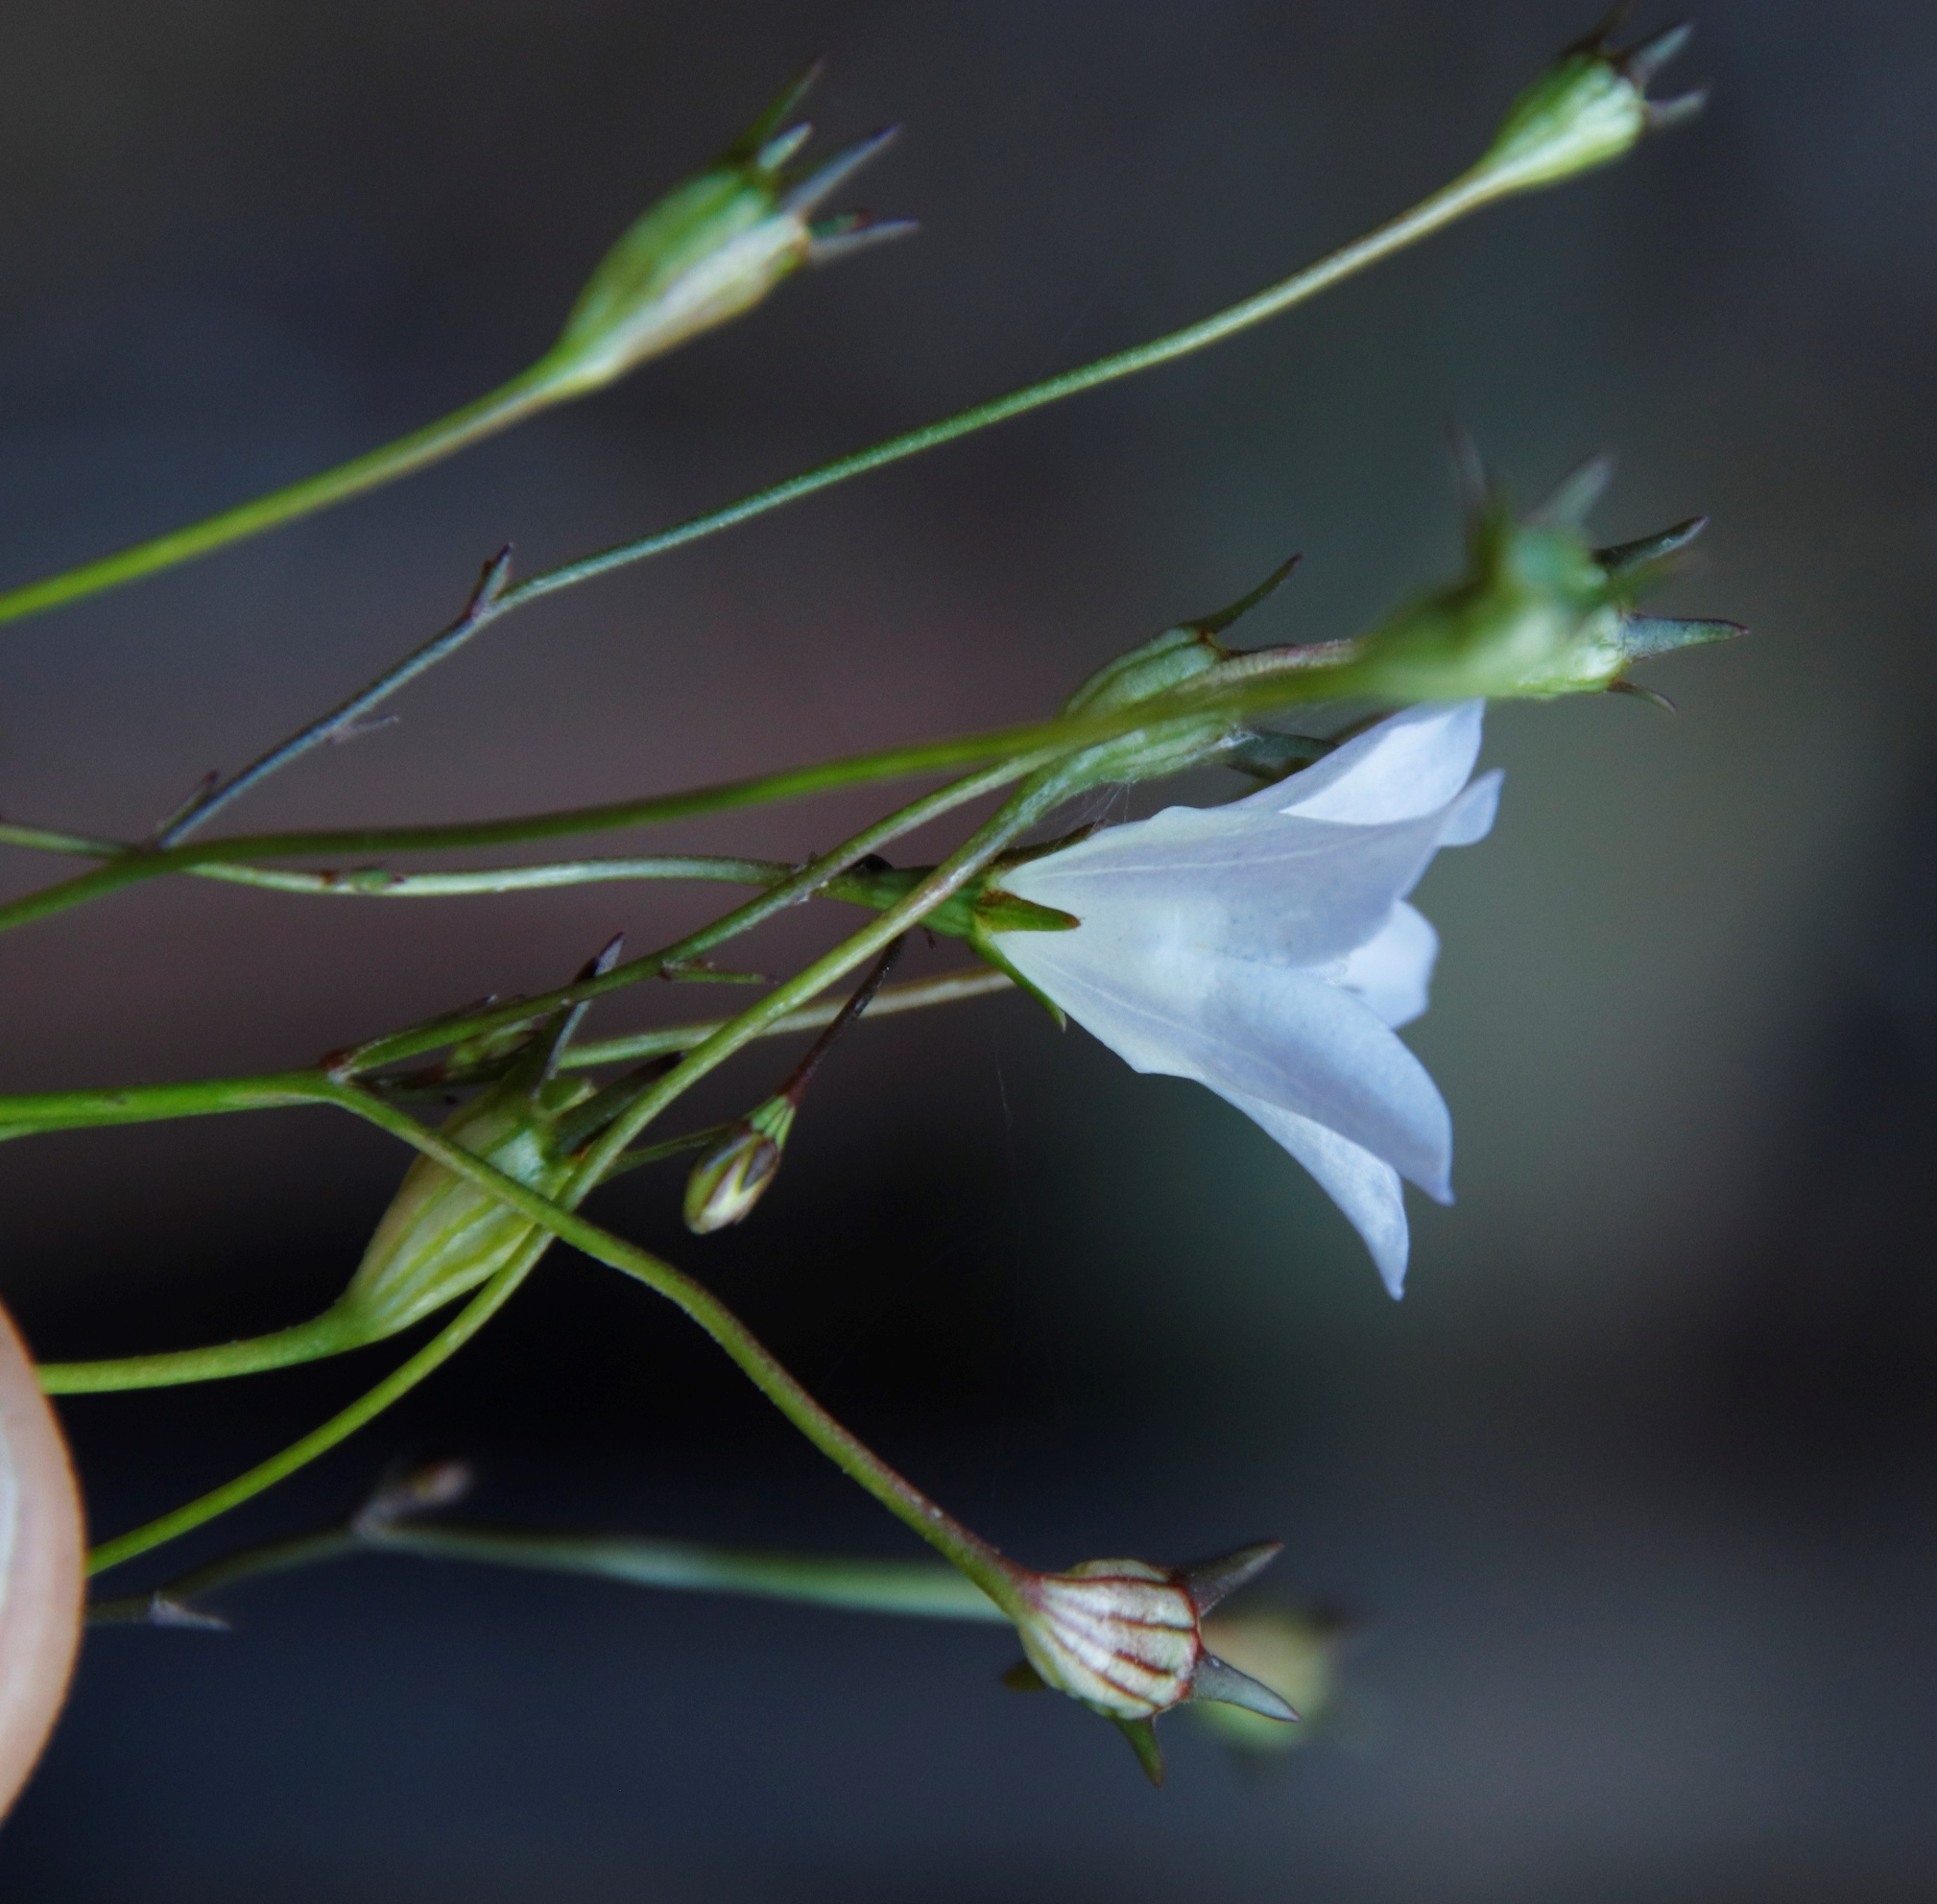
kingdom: Plantae
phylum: Tracheophyta
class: Magnoliopsida
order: Asterales
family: Campanulaceae
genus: Wahlenbergia
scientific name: Wahlenbergia obovata
